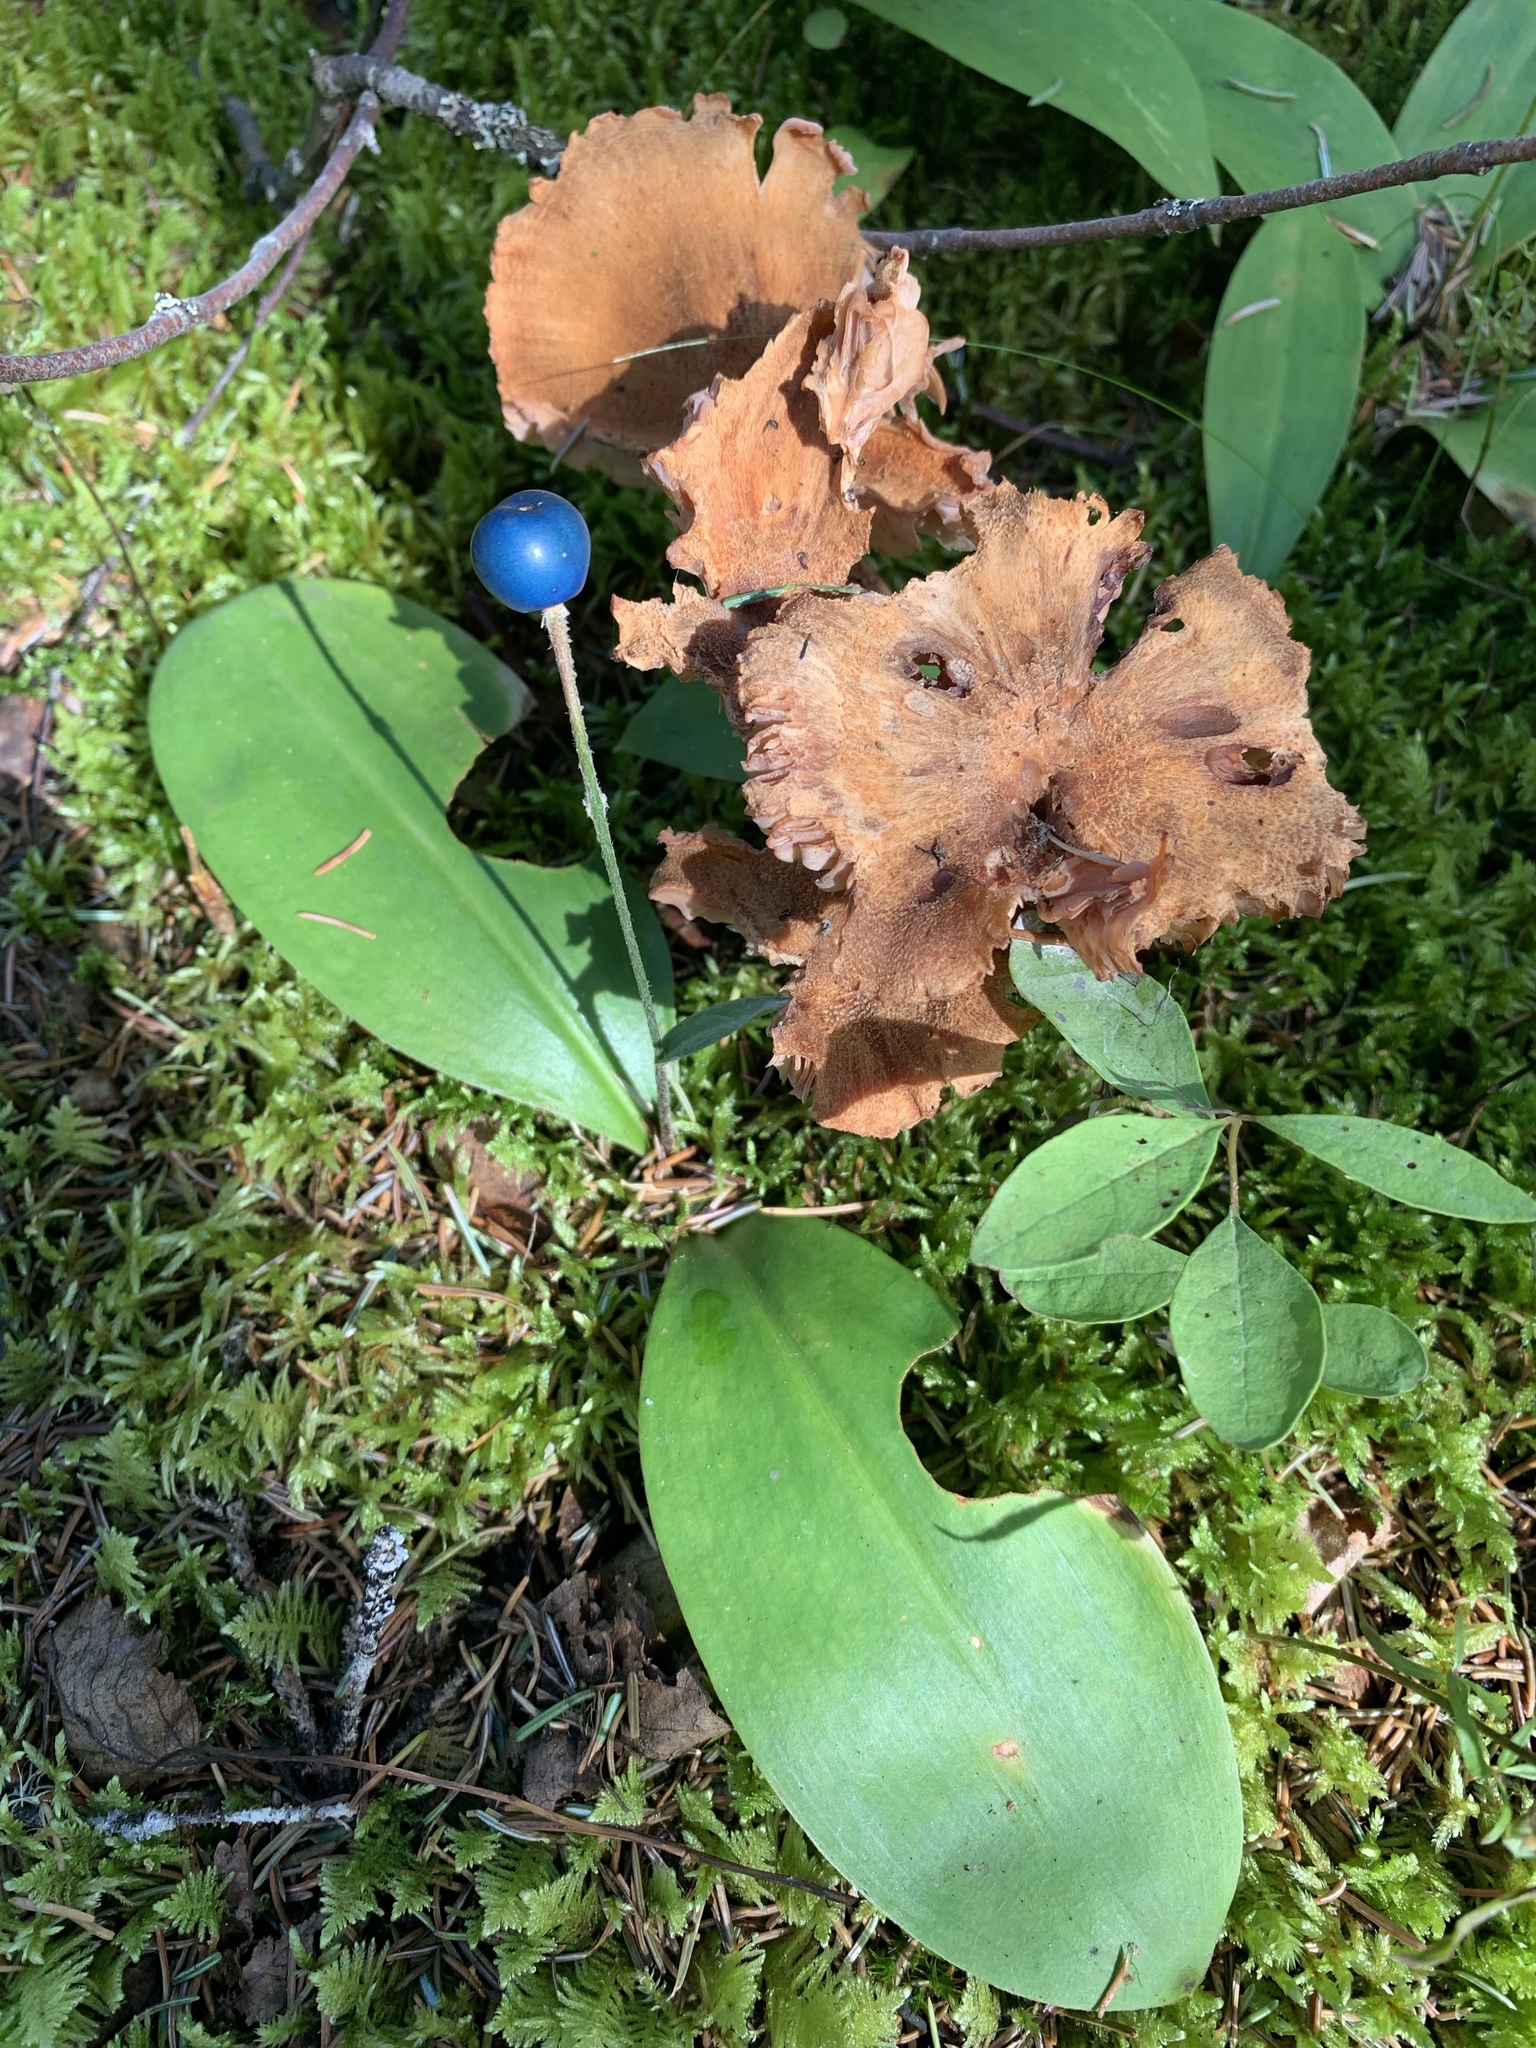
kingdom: Plantae
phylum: Tracheophyta
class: Liliopsida
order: Liliales
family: Liliaceae
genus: Clintonia
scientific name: Clintonia uniflora
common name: Queen's cup
